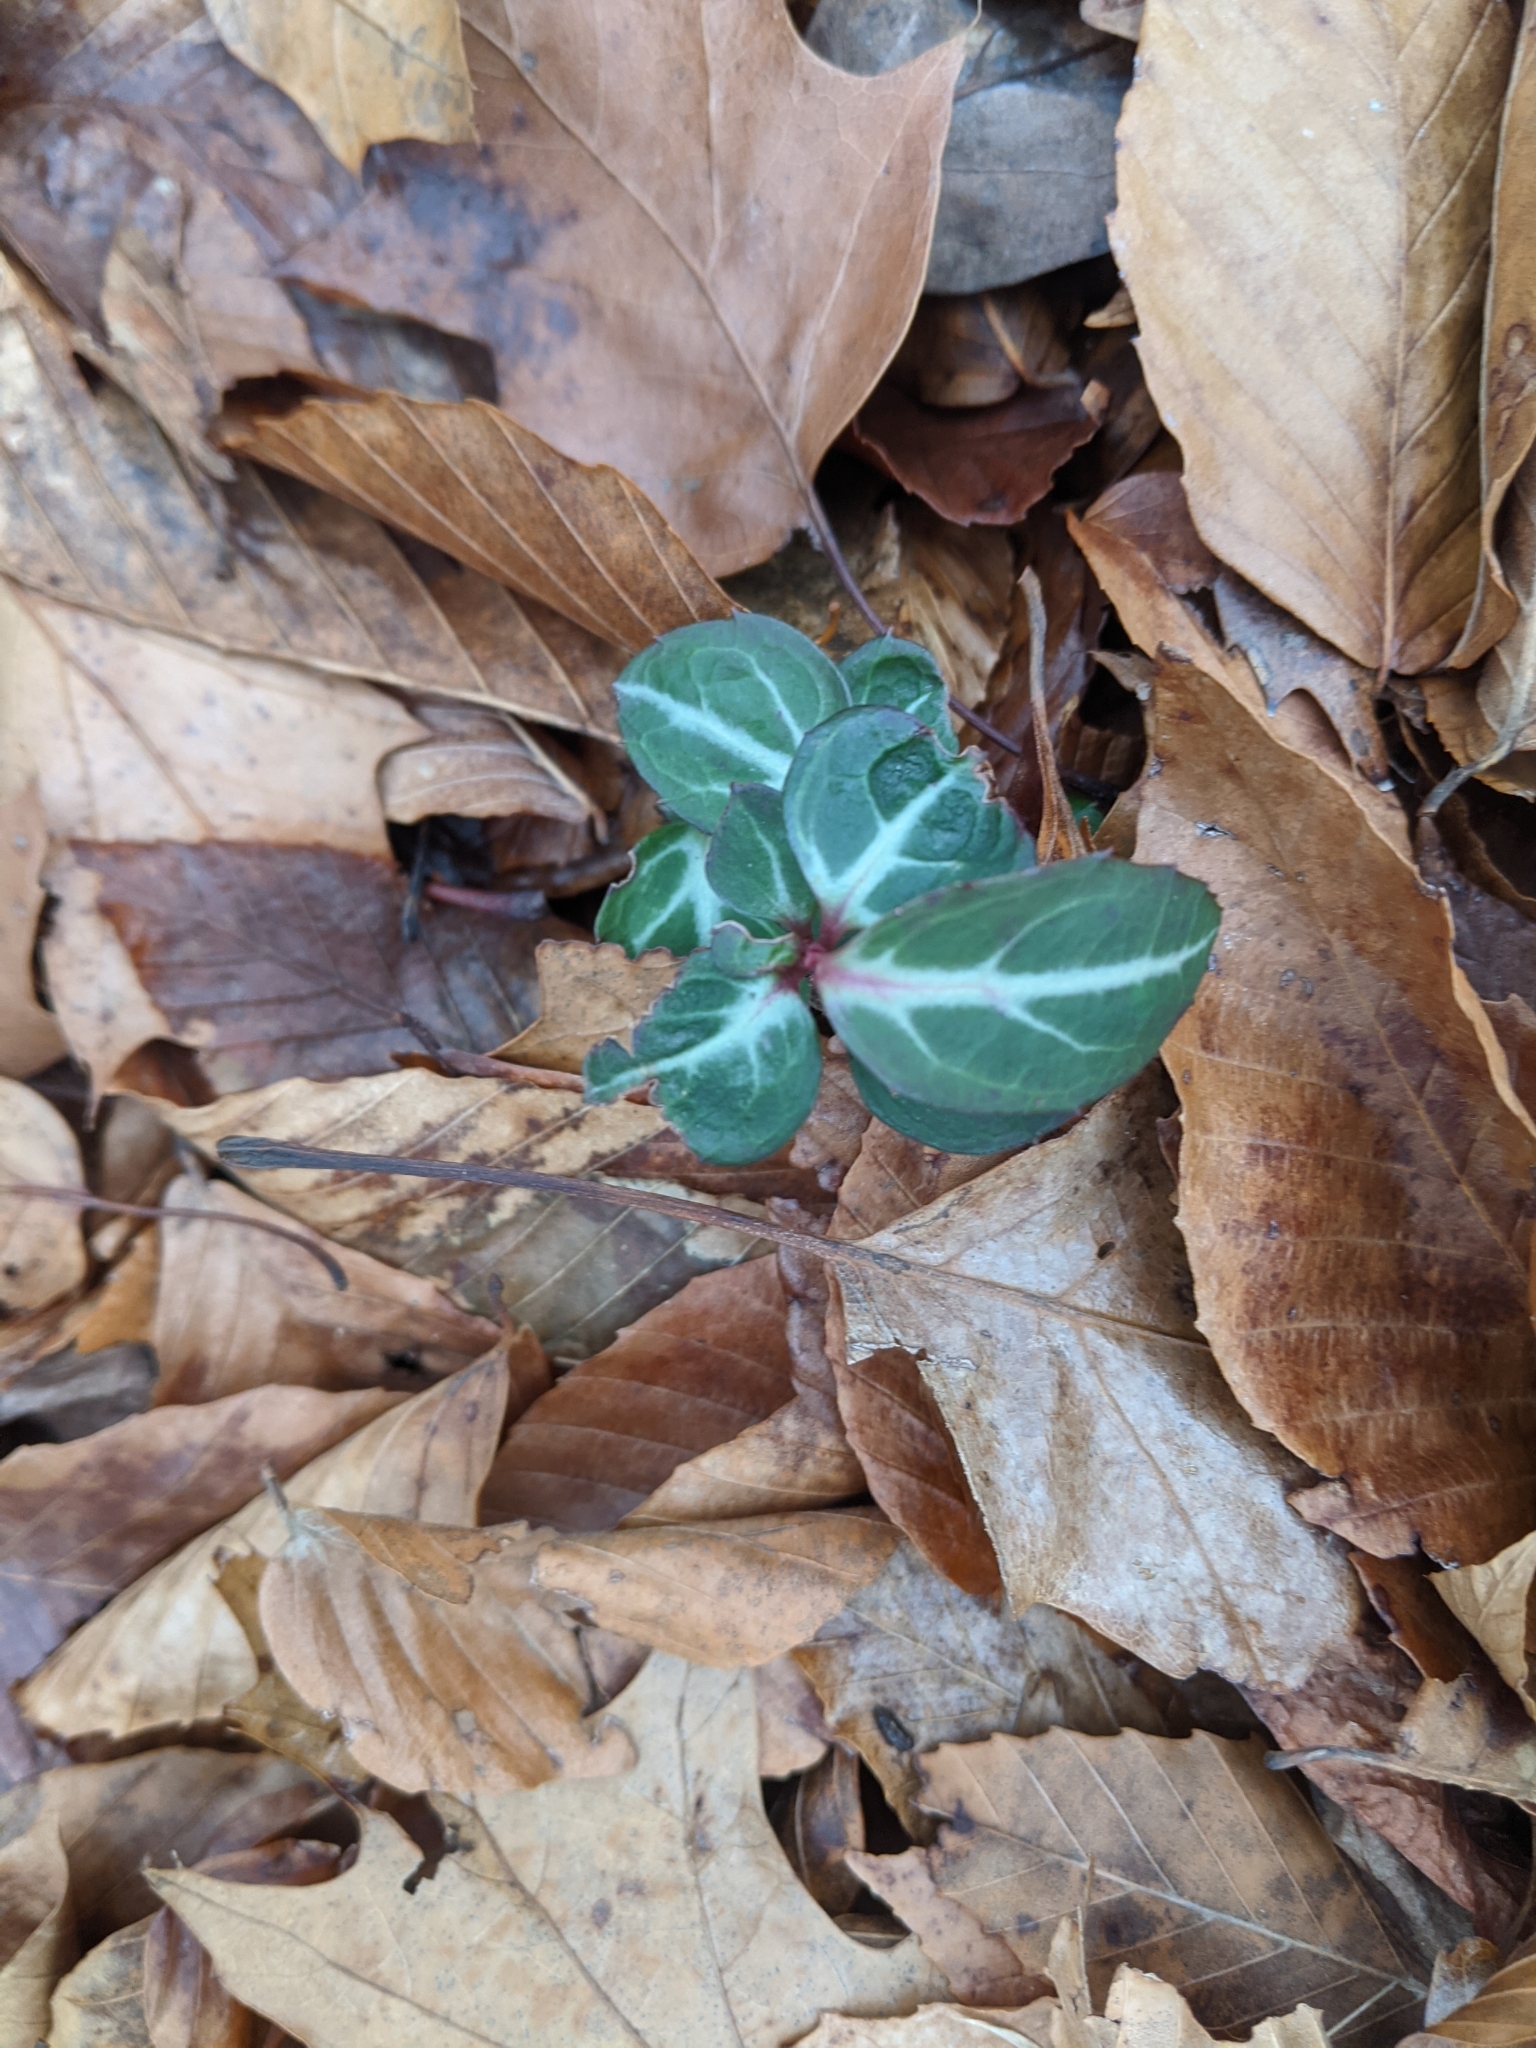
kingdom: Plantae
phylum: Tracheophyta
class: Magnoliopsida
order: Ericales
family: Ericaceae
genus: Chimaphila
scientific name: Chimaphila maculata
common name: Spotted pipsissewa
